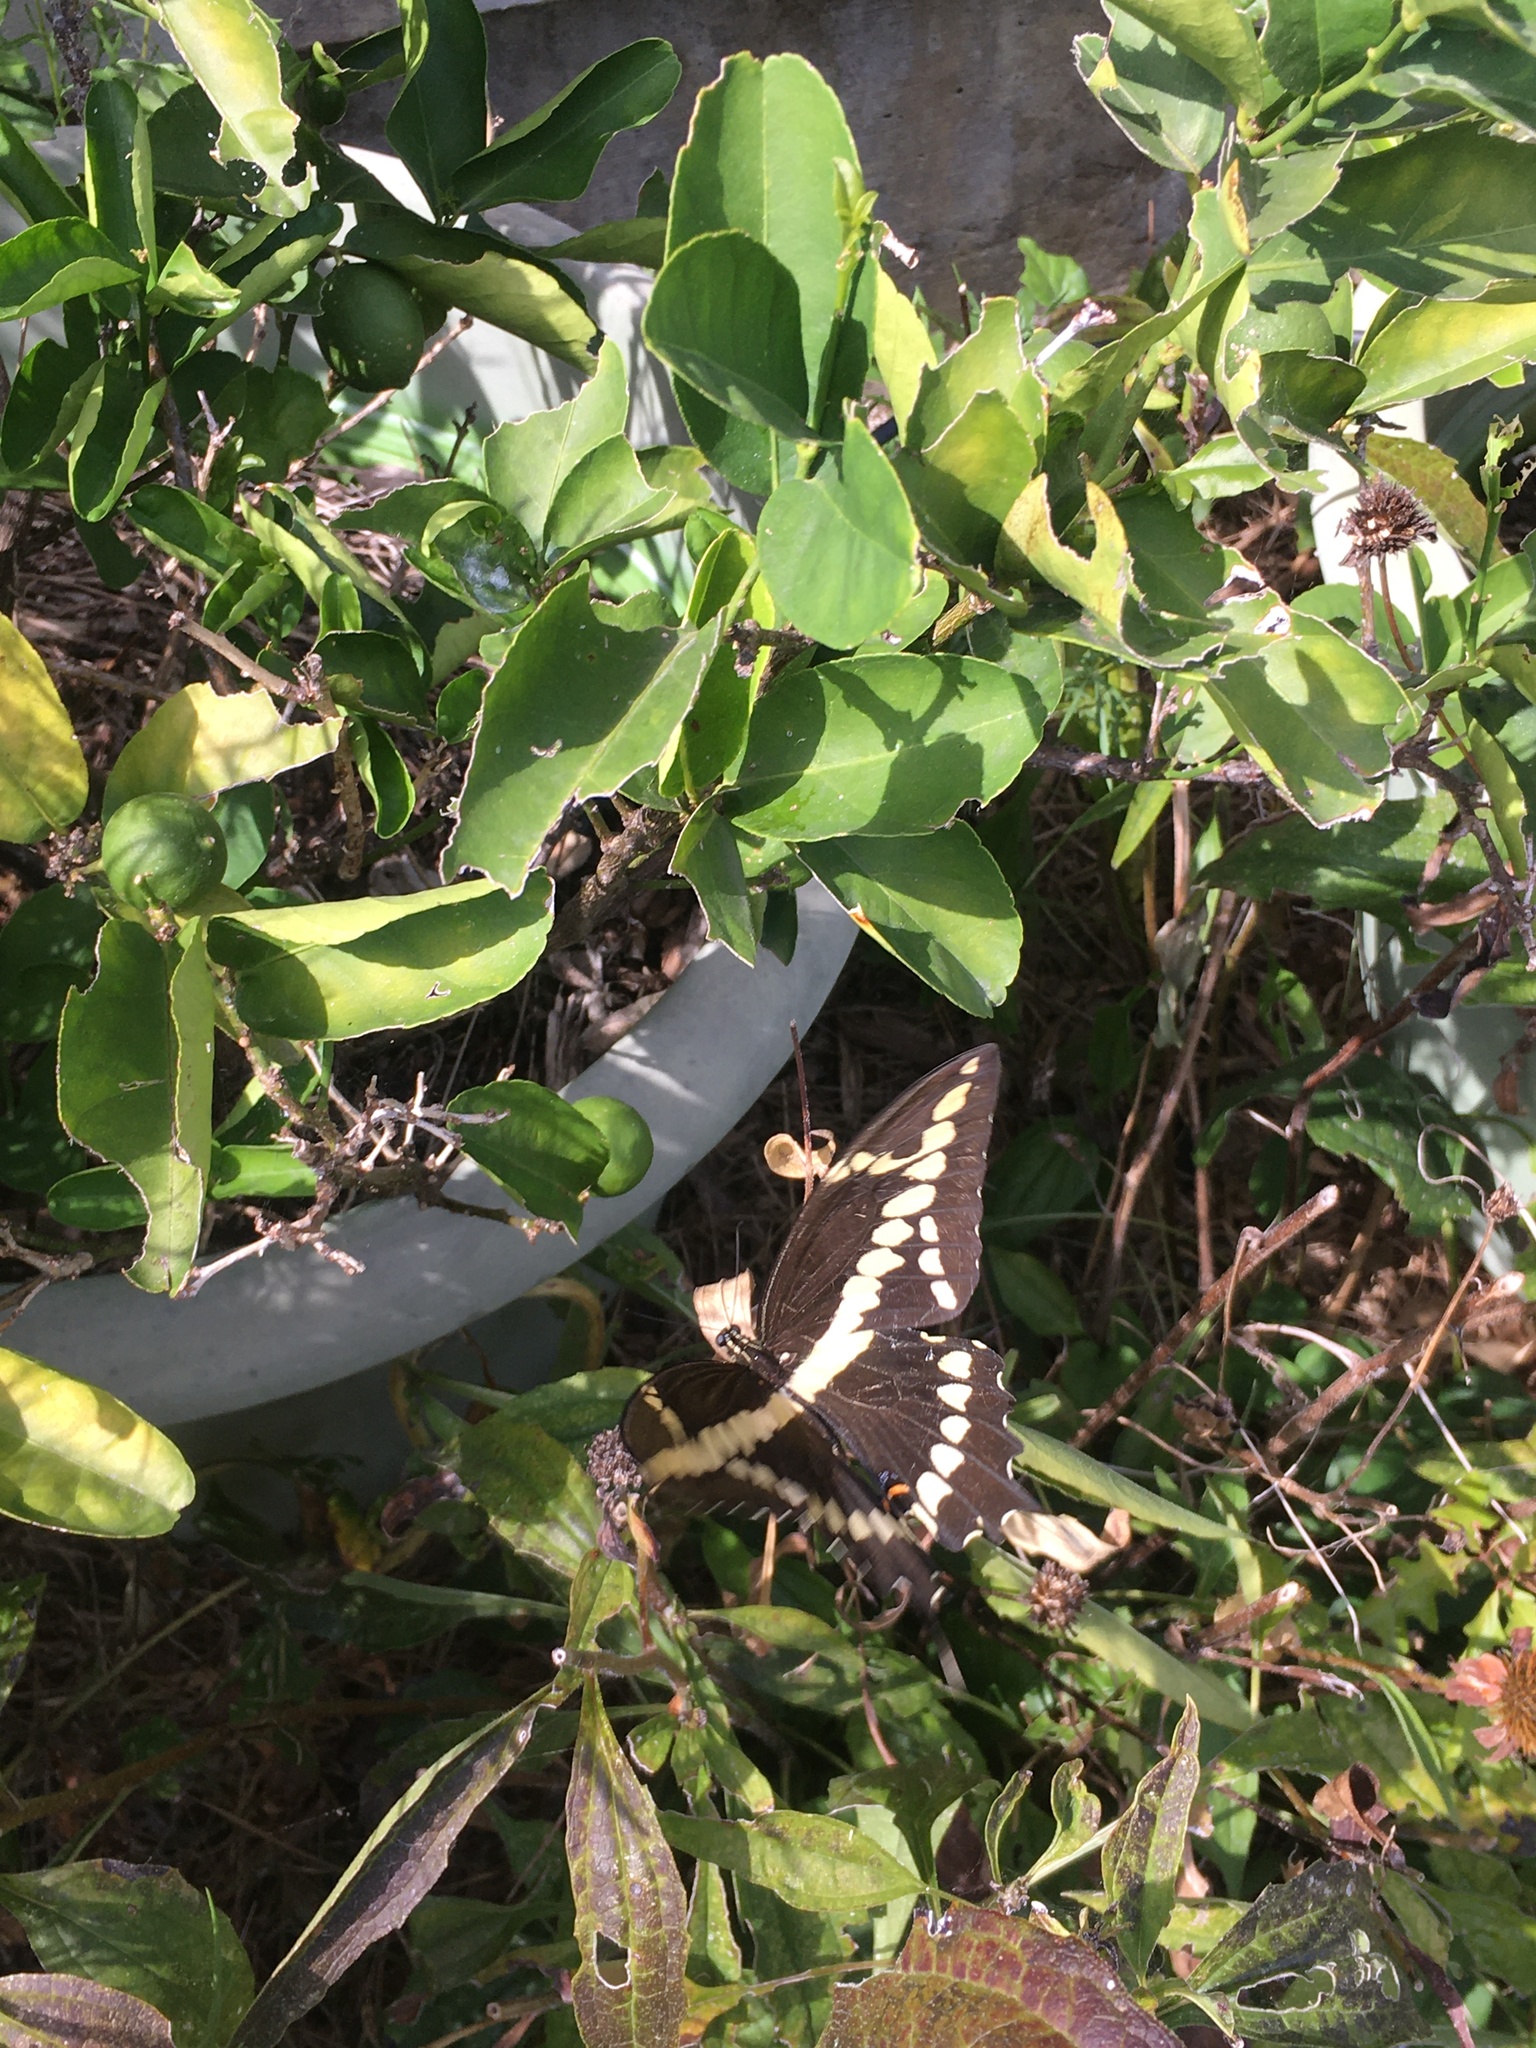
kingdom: Animalia
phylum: Arthropoda
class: Insecta
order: Lepidoptera
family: Papilionidae
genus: Papilio
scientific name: Papilio cresphontes
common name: Giant swallowtail
